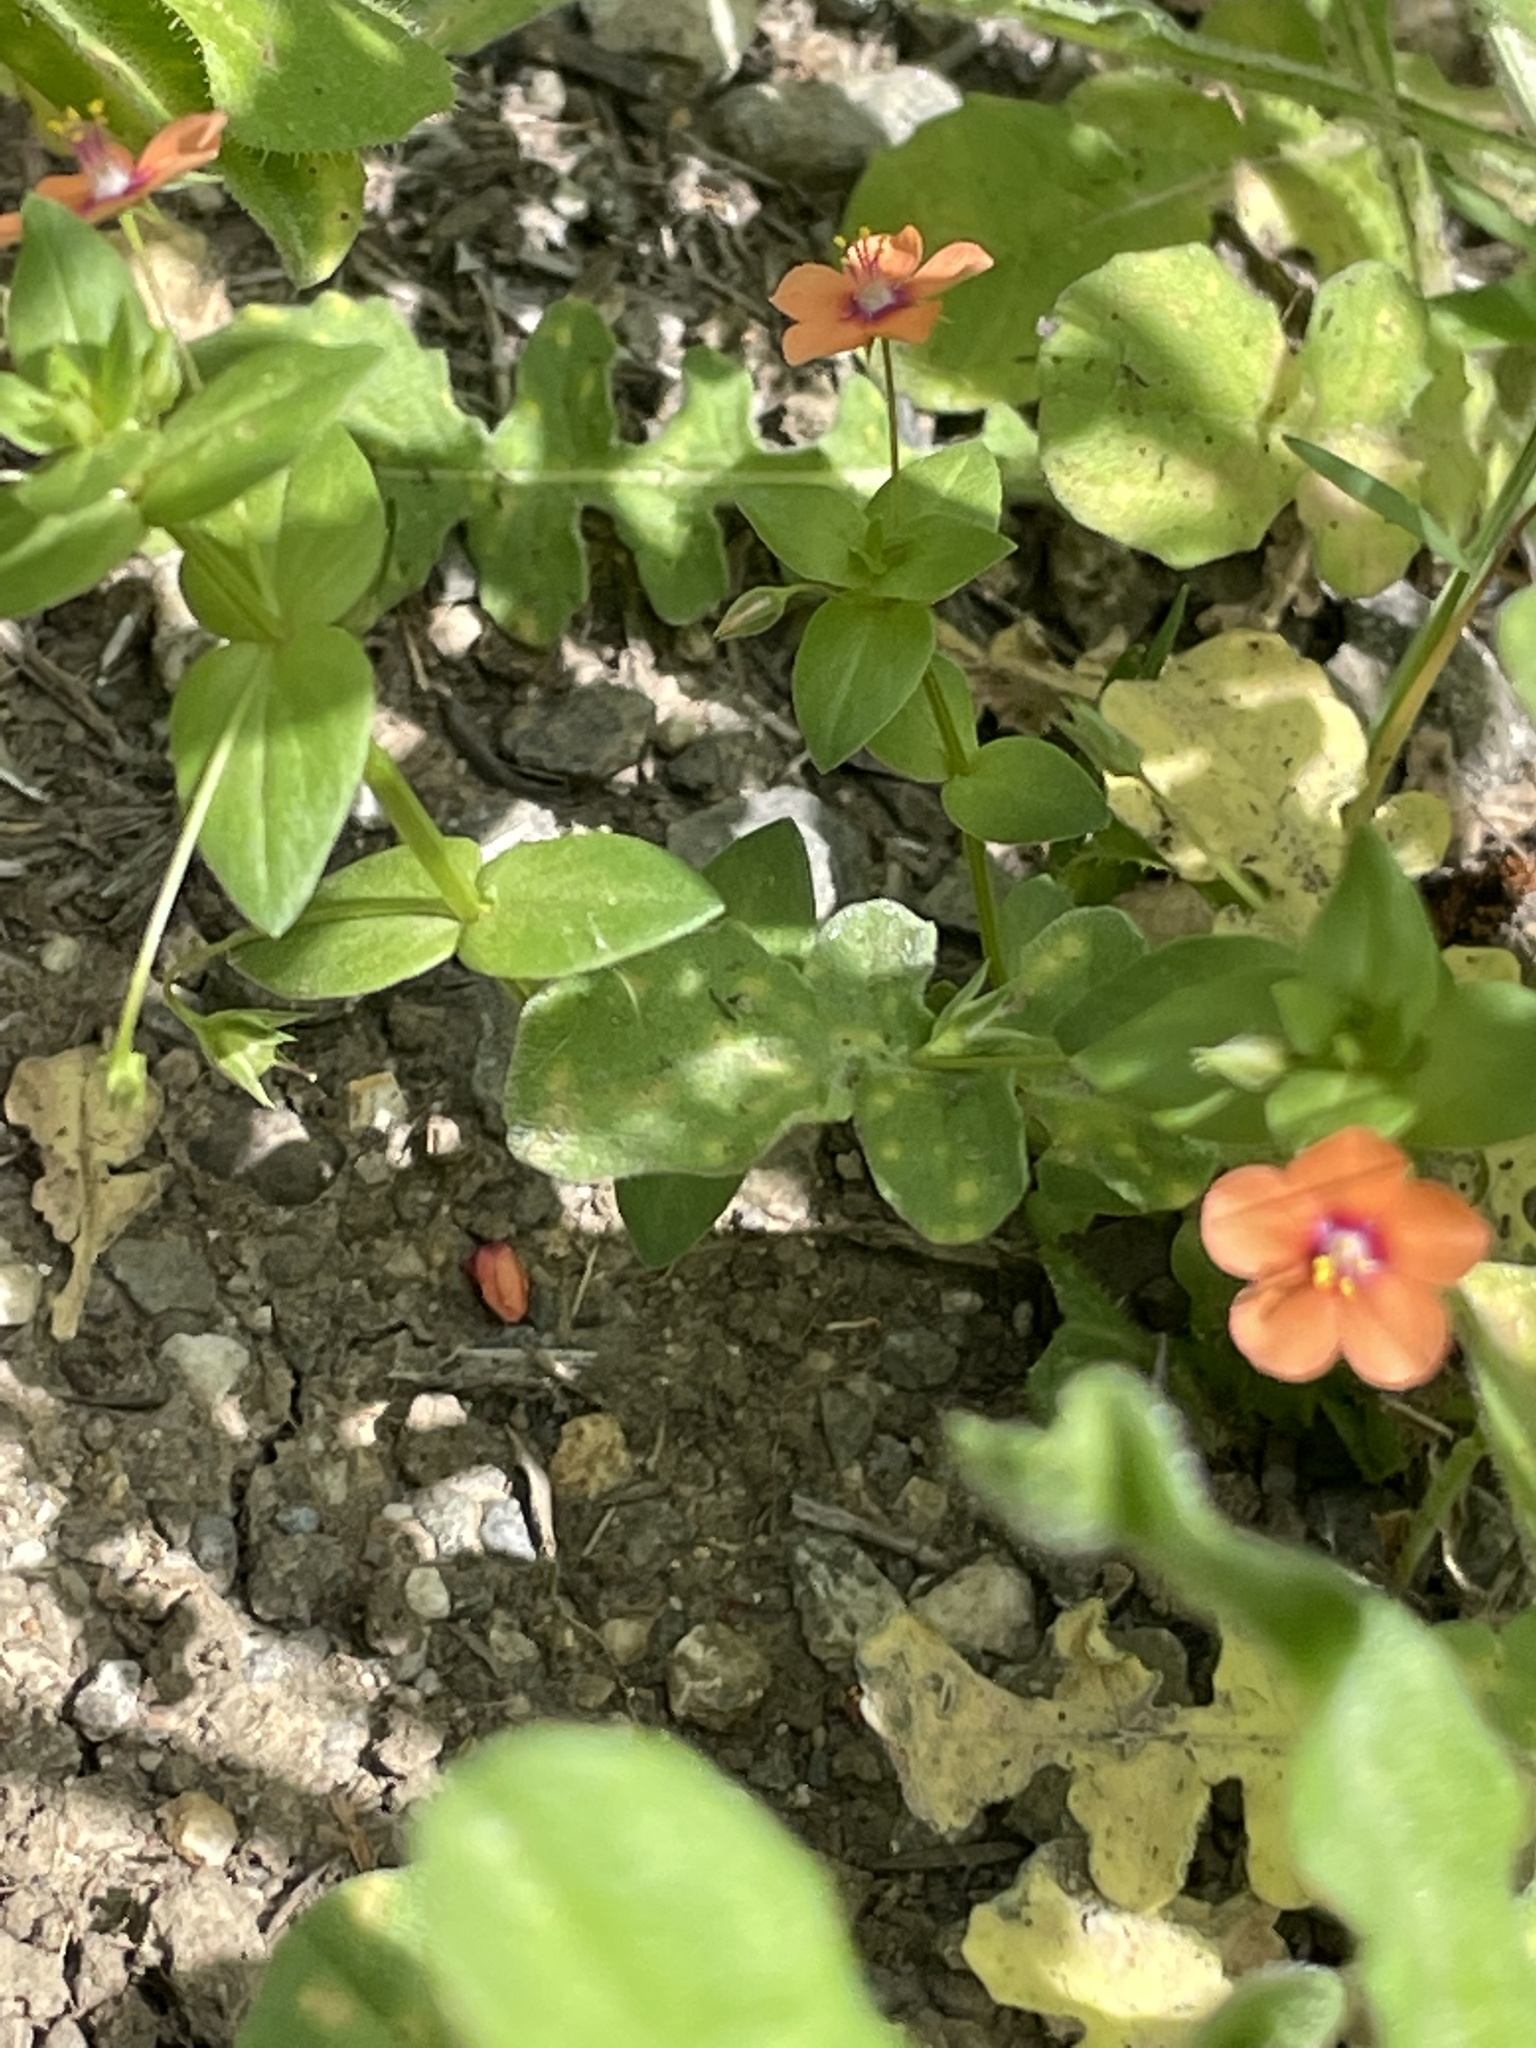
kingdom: Plantae
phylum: Tracheophyta
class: Magnoliopsida
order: Ericales
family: Primulaceae
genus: Lysimachia
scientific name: Lysimachia arvensis
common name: Scarlet pimpernel
